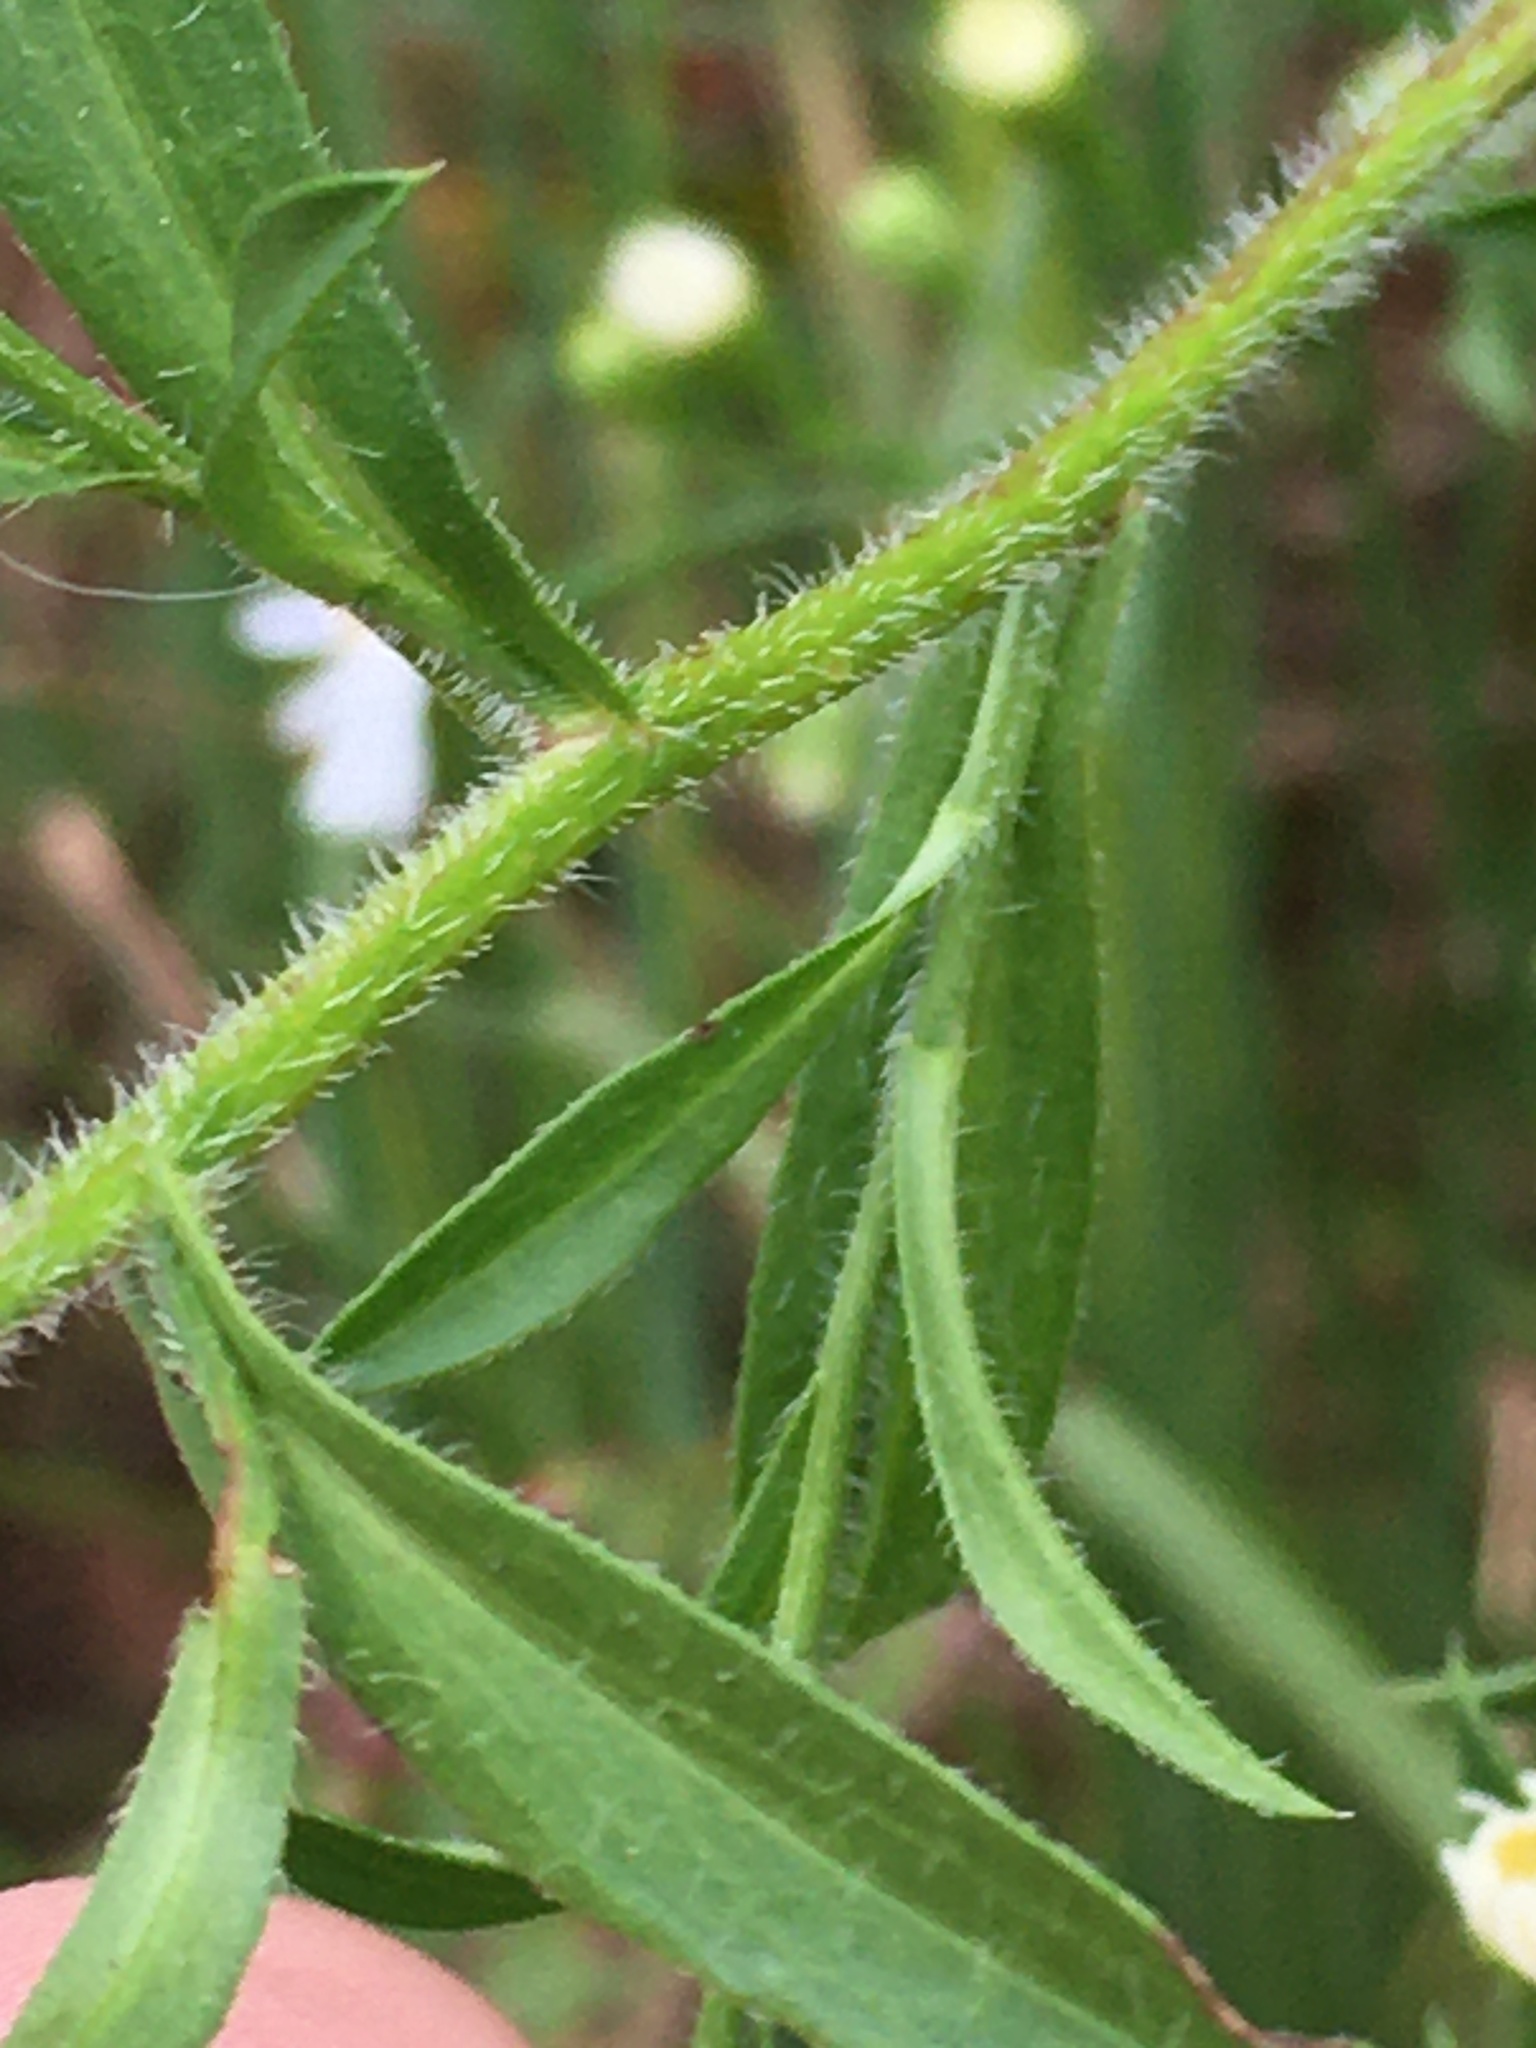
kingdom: Plantae
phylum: Tracheophyta
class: Magnoliopsida
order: Asterales
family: Asteraceae
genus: Symphyotrichum
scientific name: Symphyotrichum pilosum
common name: Awl aster
